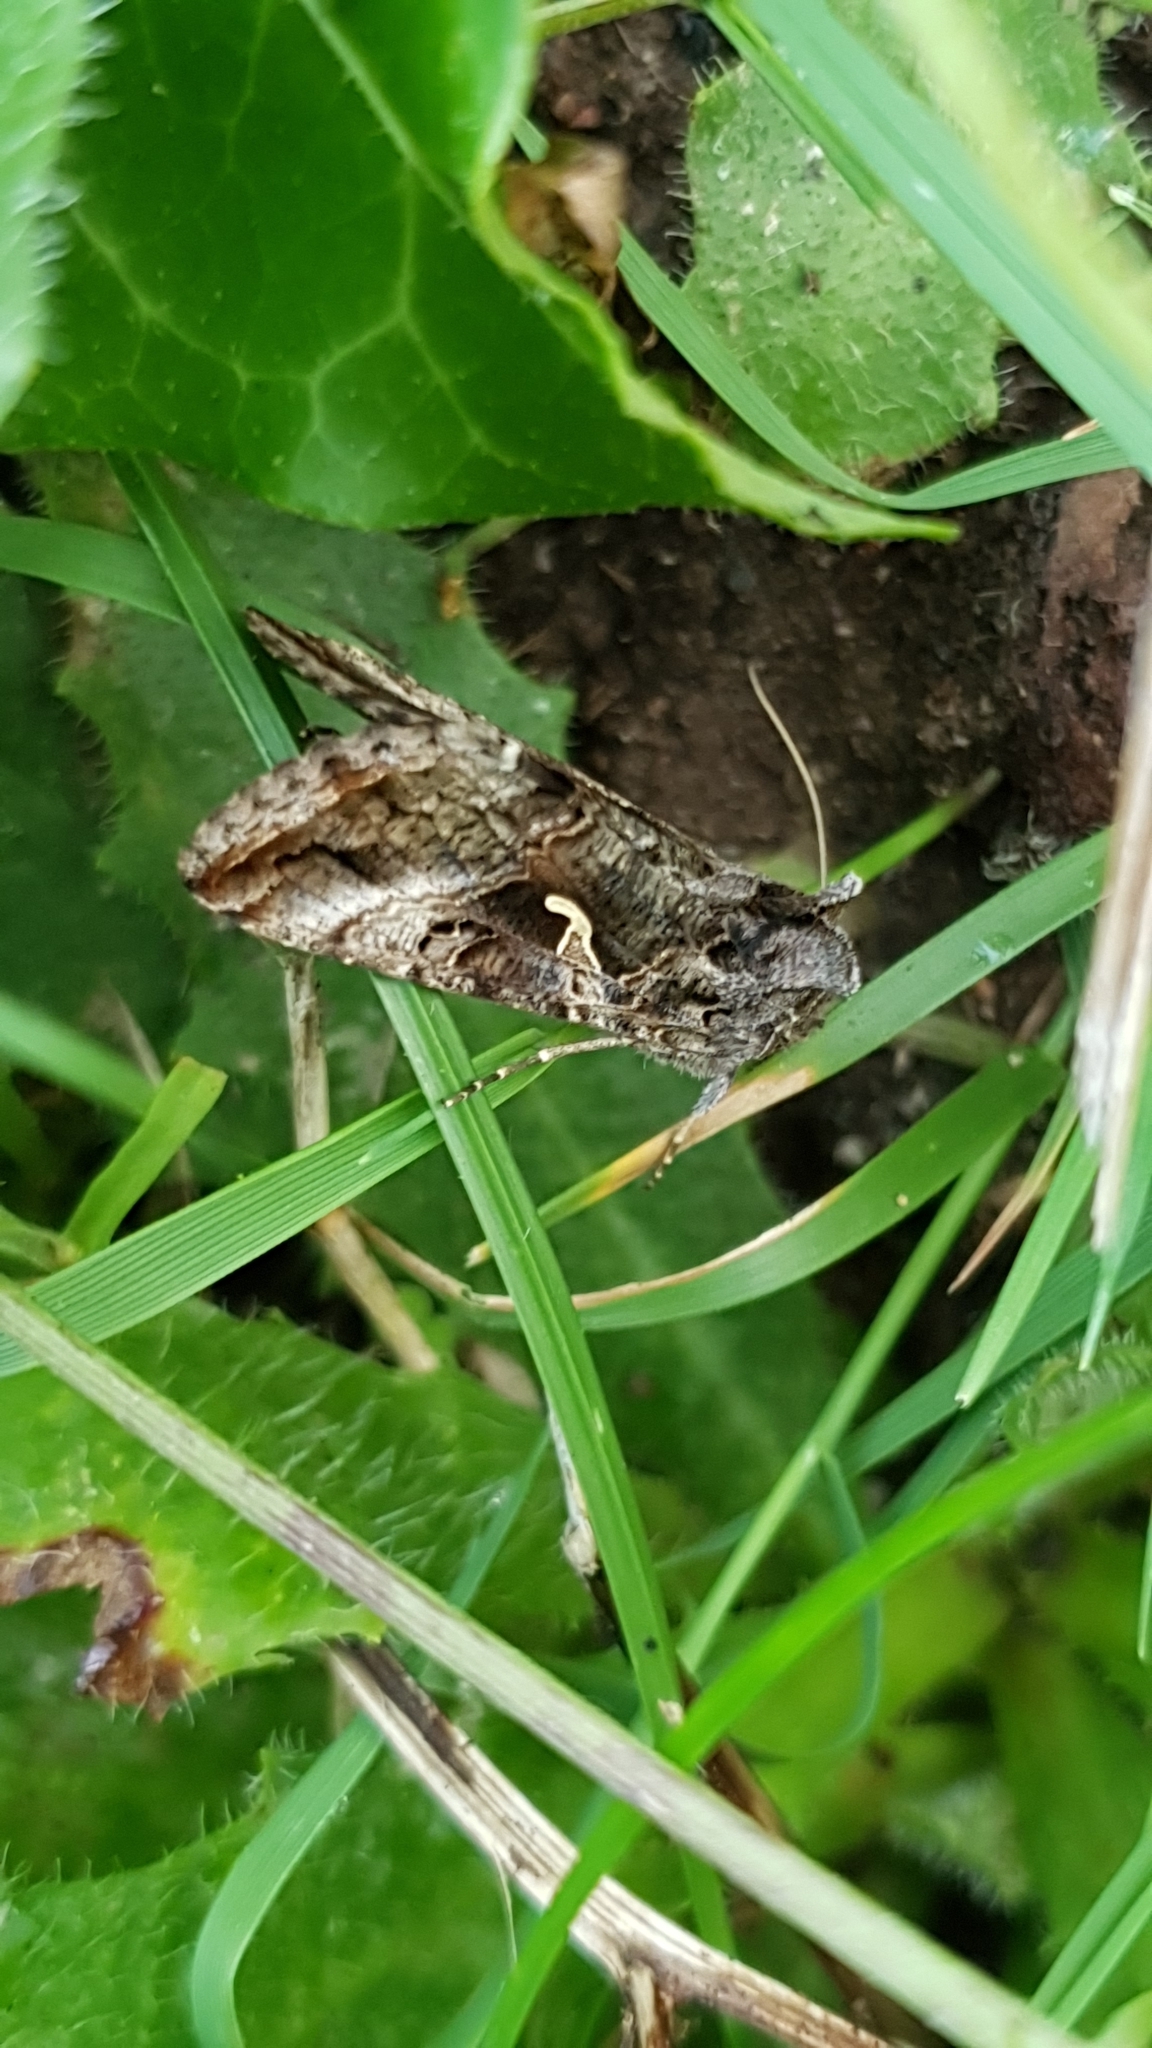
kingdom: Animalia
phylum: Arthropoda
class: Insecta
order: Lepidoptera
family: Noctuidae
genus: Autographa
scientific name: Autographa gamma
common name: Silver y
